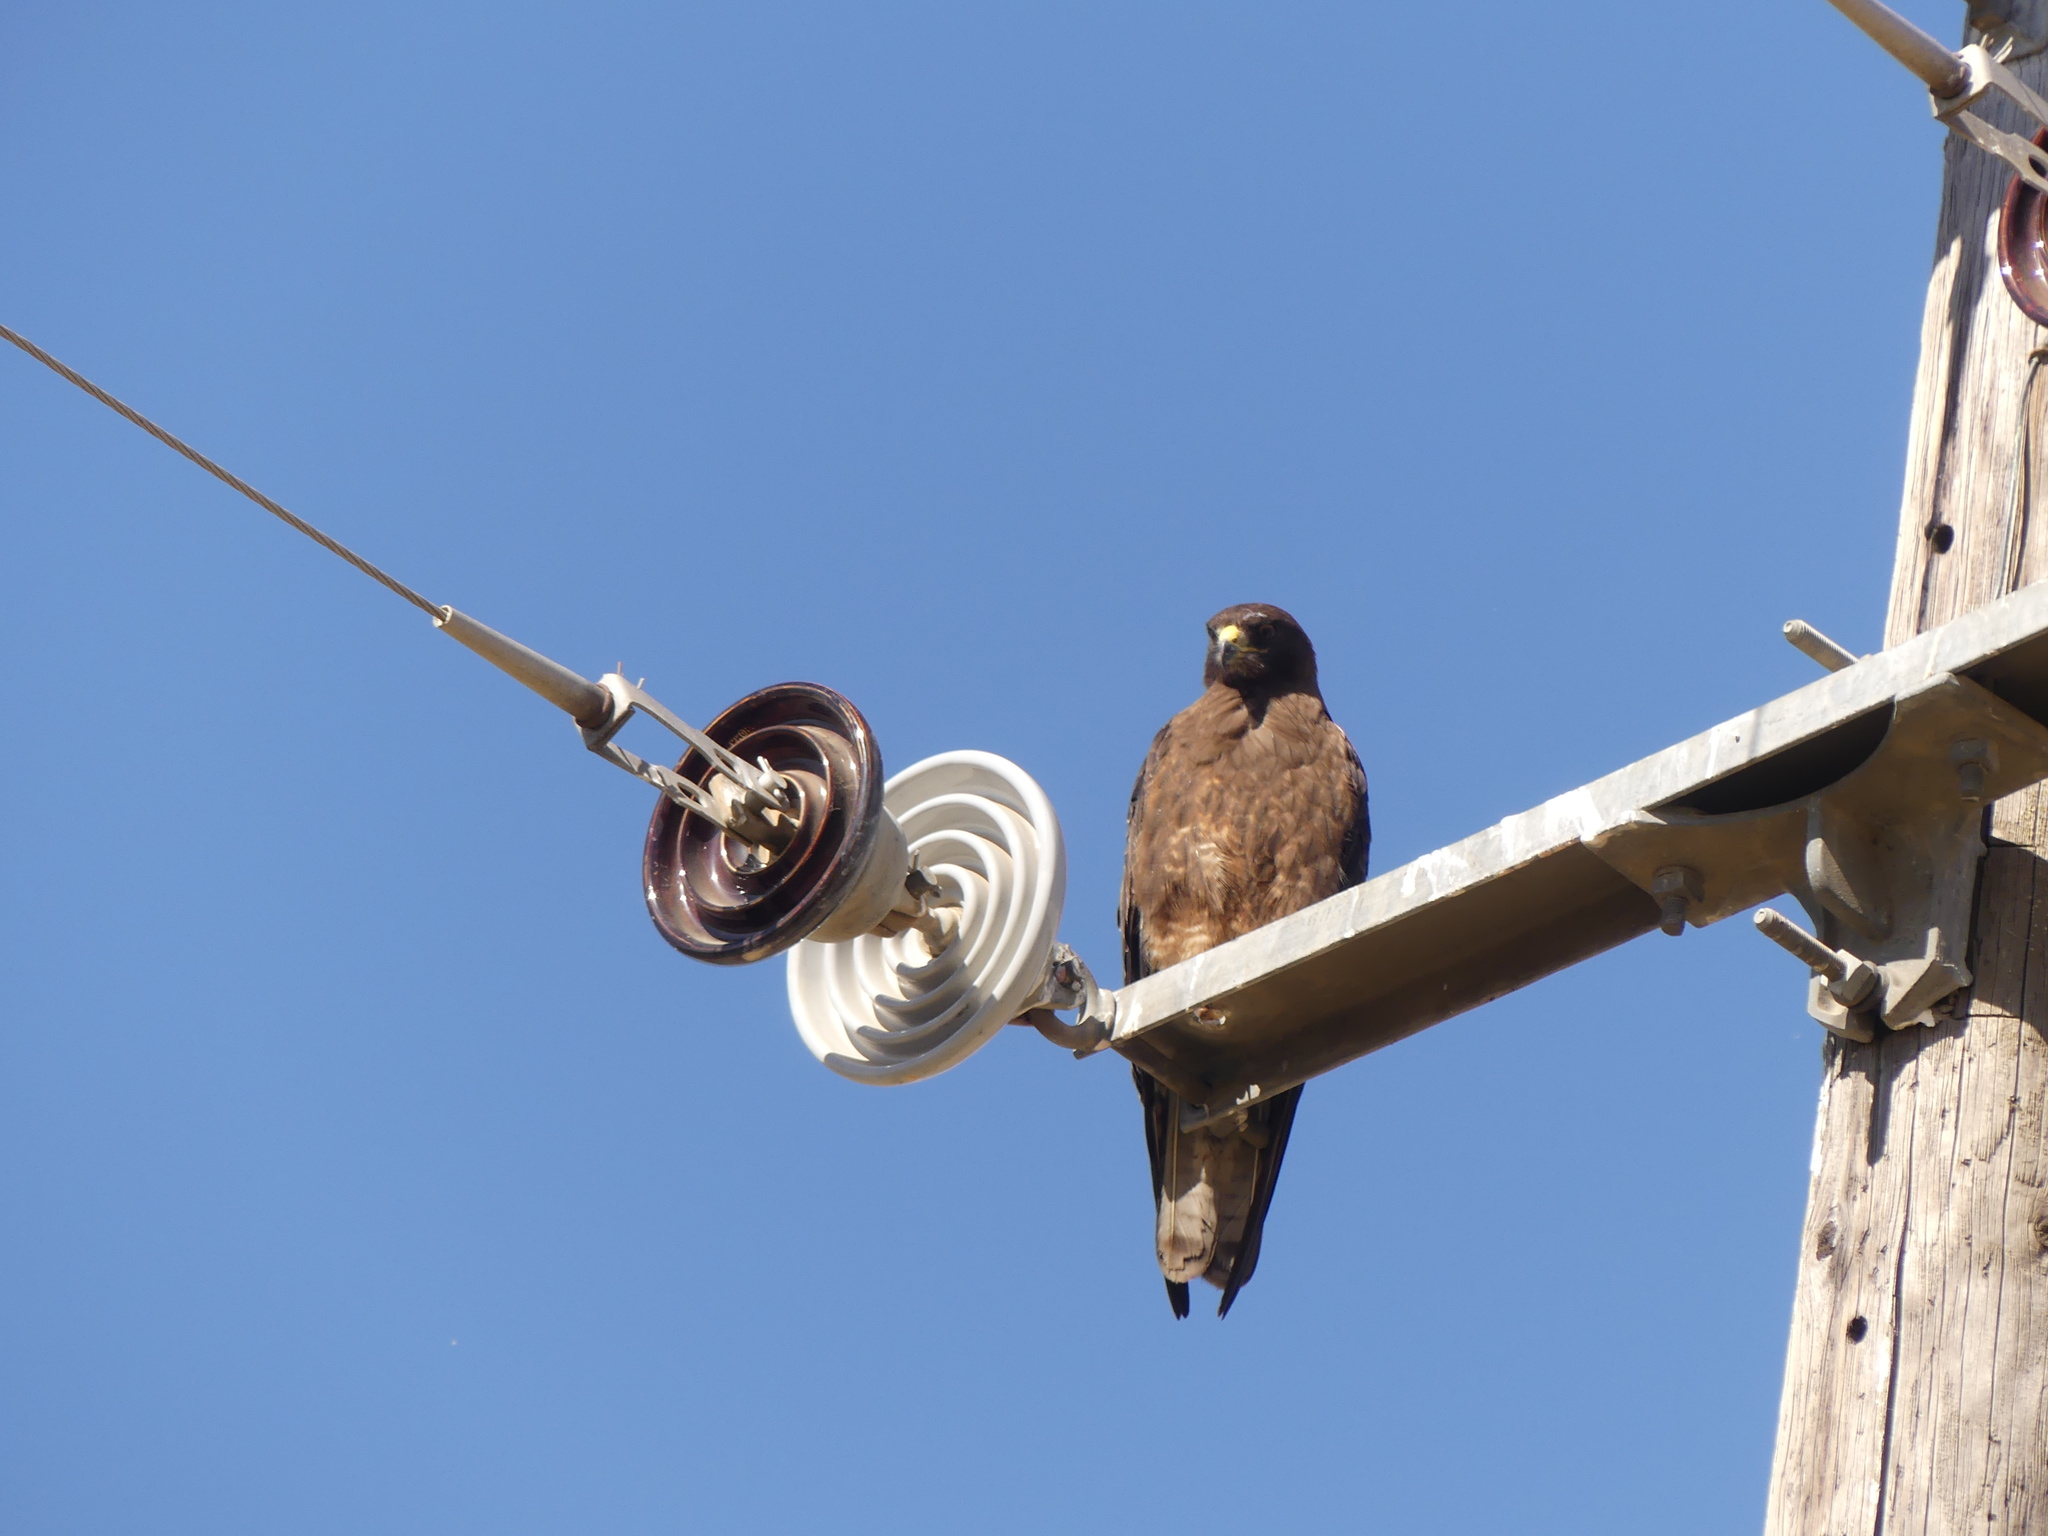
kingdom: Animalia
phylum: Chordata
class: Aves
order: Accipitriformes
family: Accipitridae
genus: Buteo
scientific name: Buteo swainsoni
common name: Swainson's hawk
